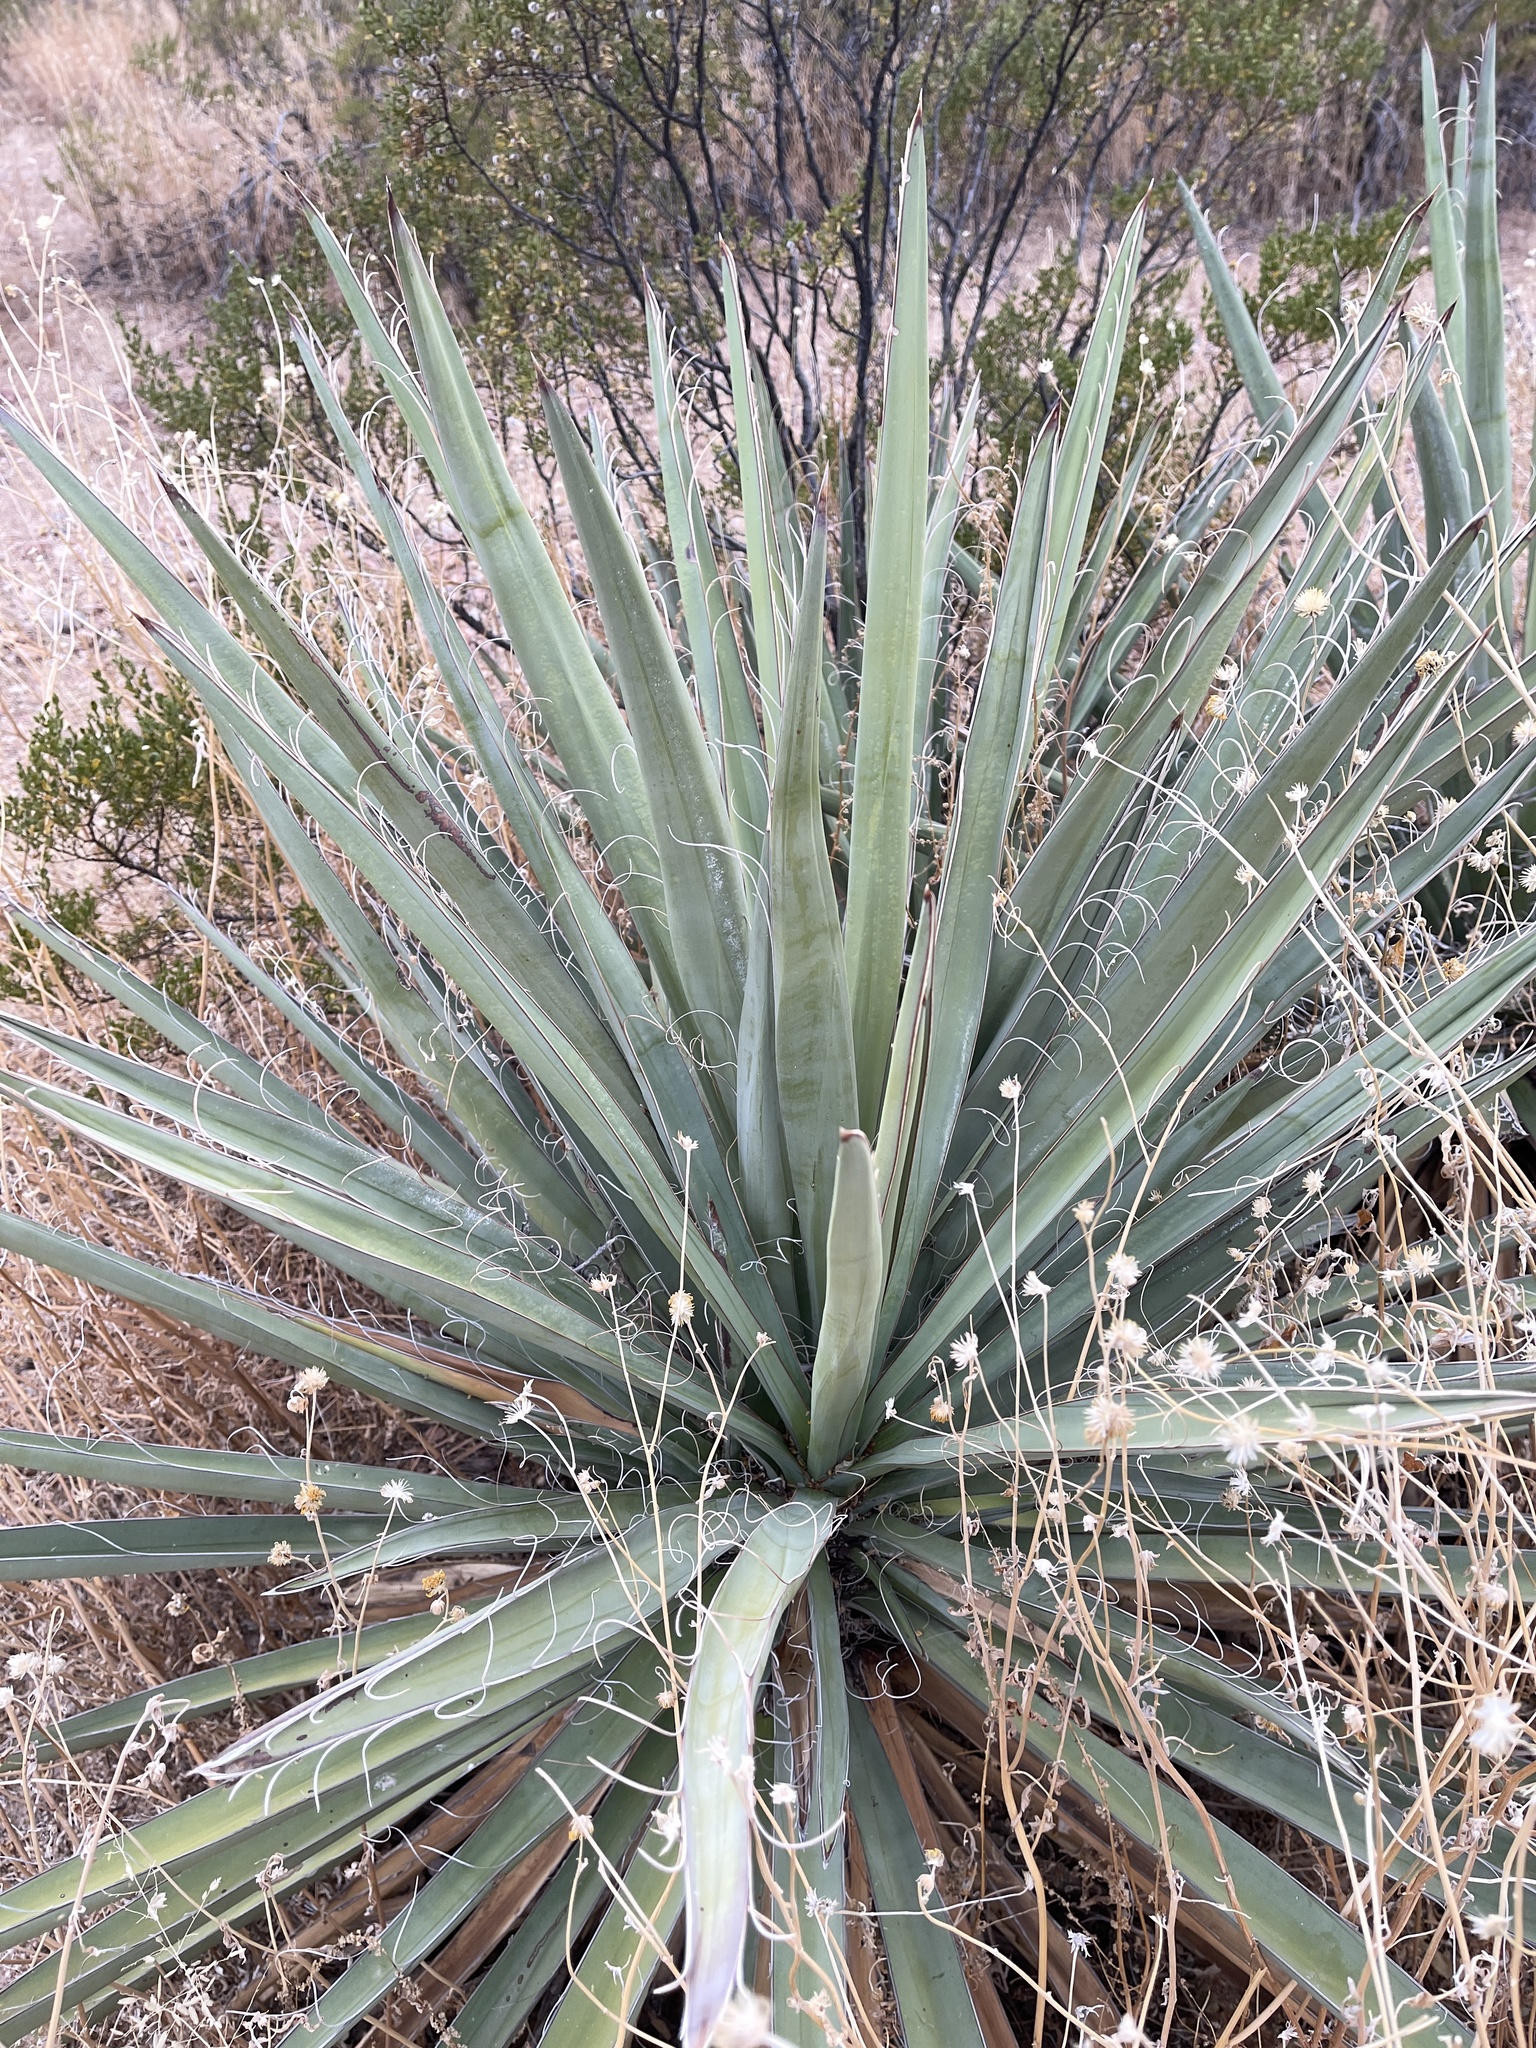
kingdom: Plantae
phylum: Tracheophyta
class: Liliopsida
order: Asparagales
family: Asparagaceae
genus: Yucca
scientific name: Yucca baccata
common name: Banana yucca
